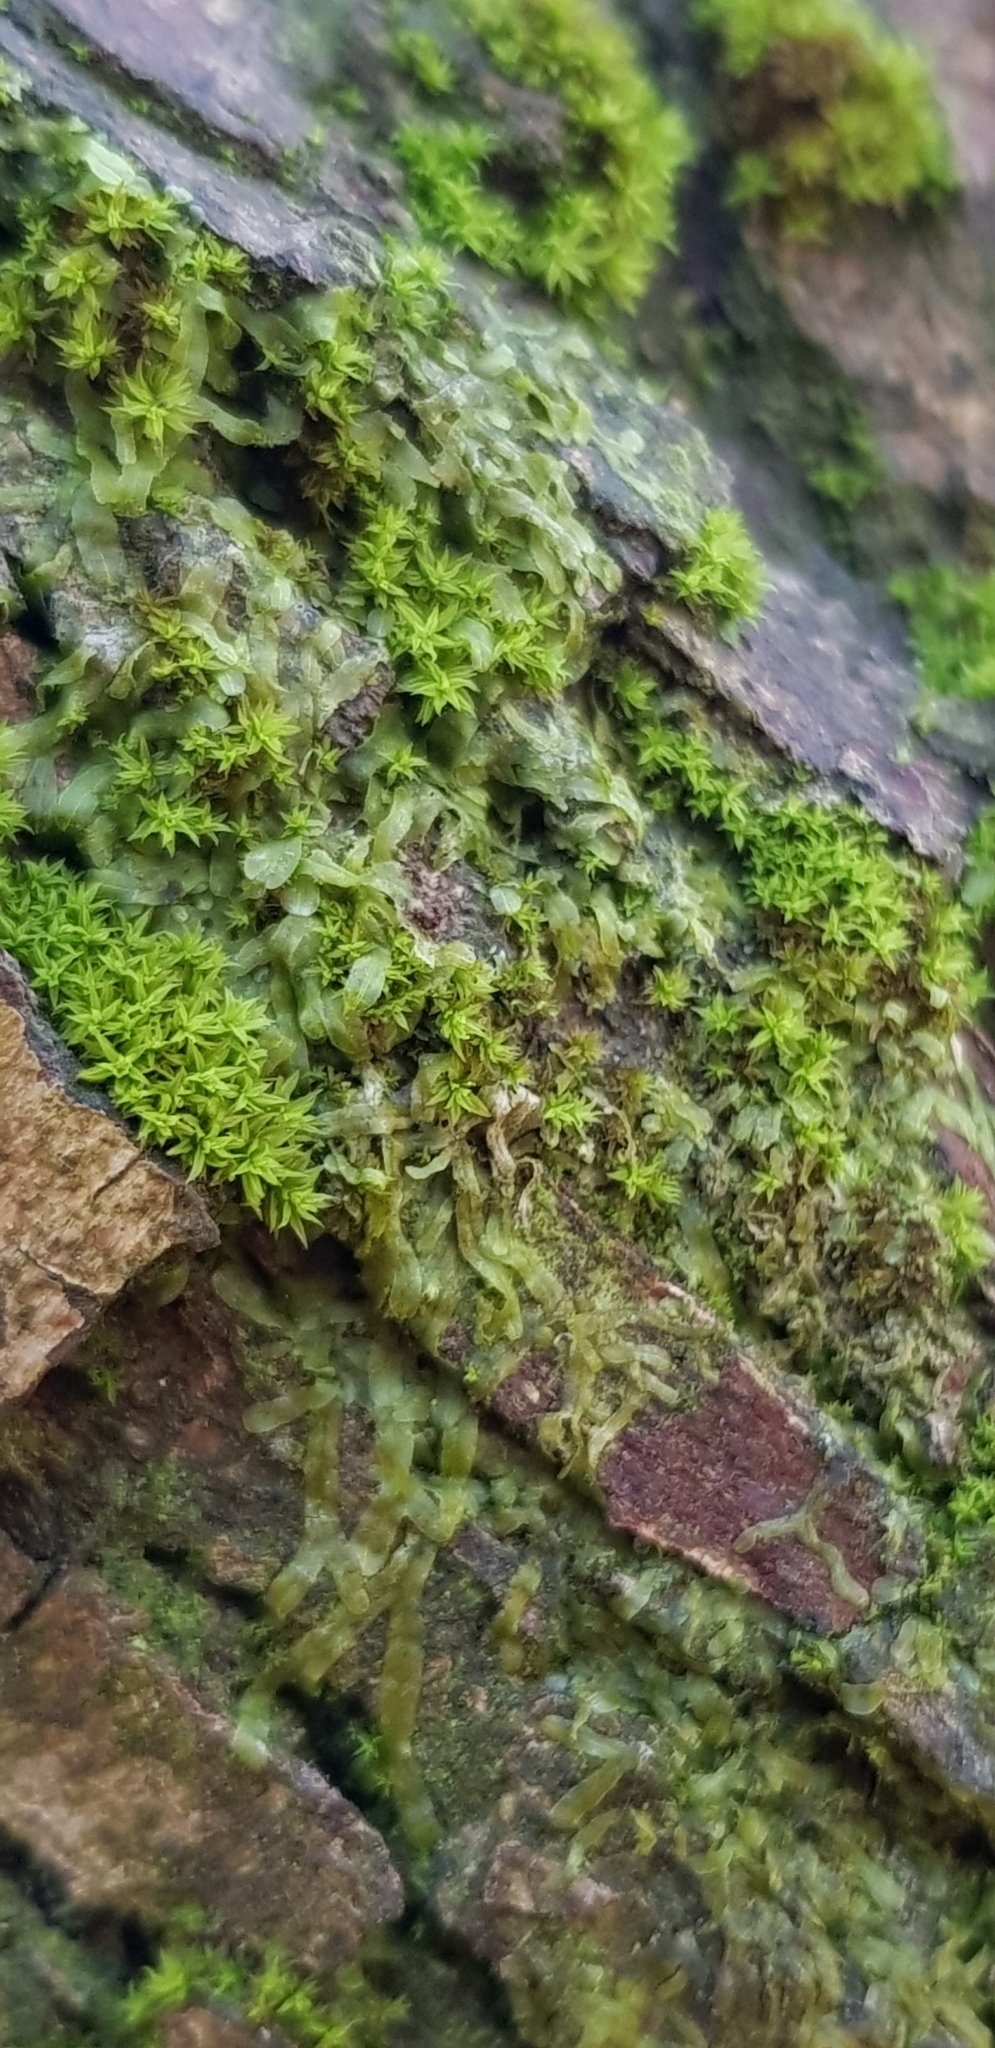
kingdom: Plantae
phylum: Marchantiophyta
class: Jungermanniopsida
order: Metzgeriales
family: Metzgeriaceae
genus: Metzgeria
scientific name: Metzgeria furcata
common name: Forked veilwort
